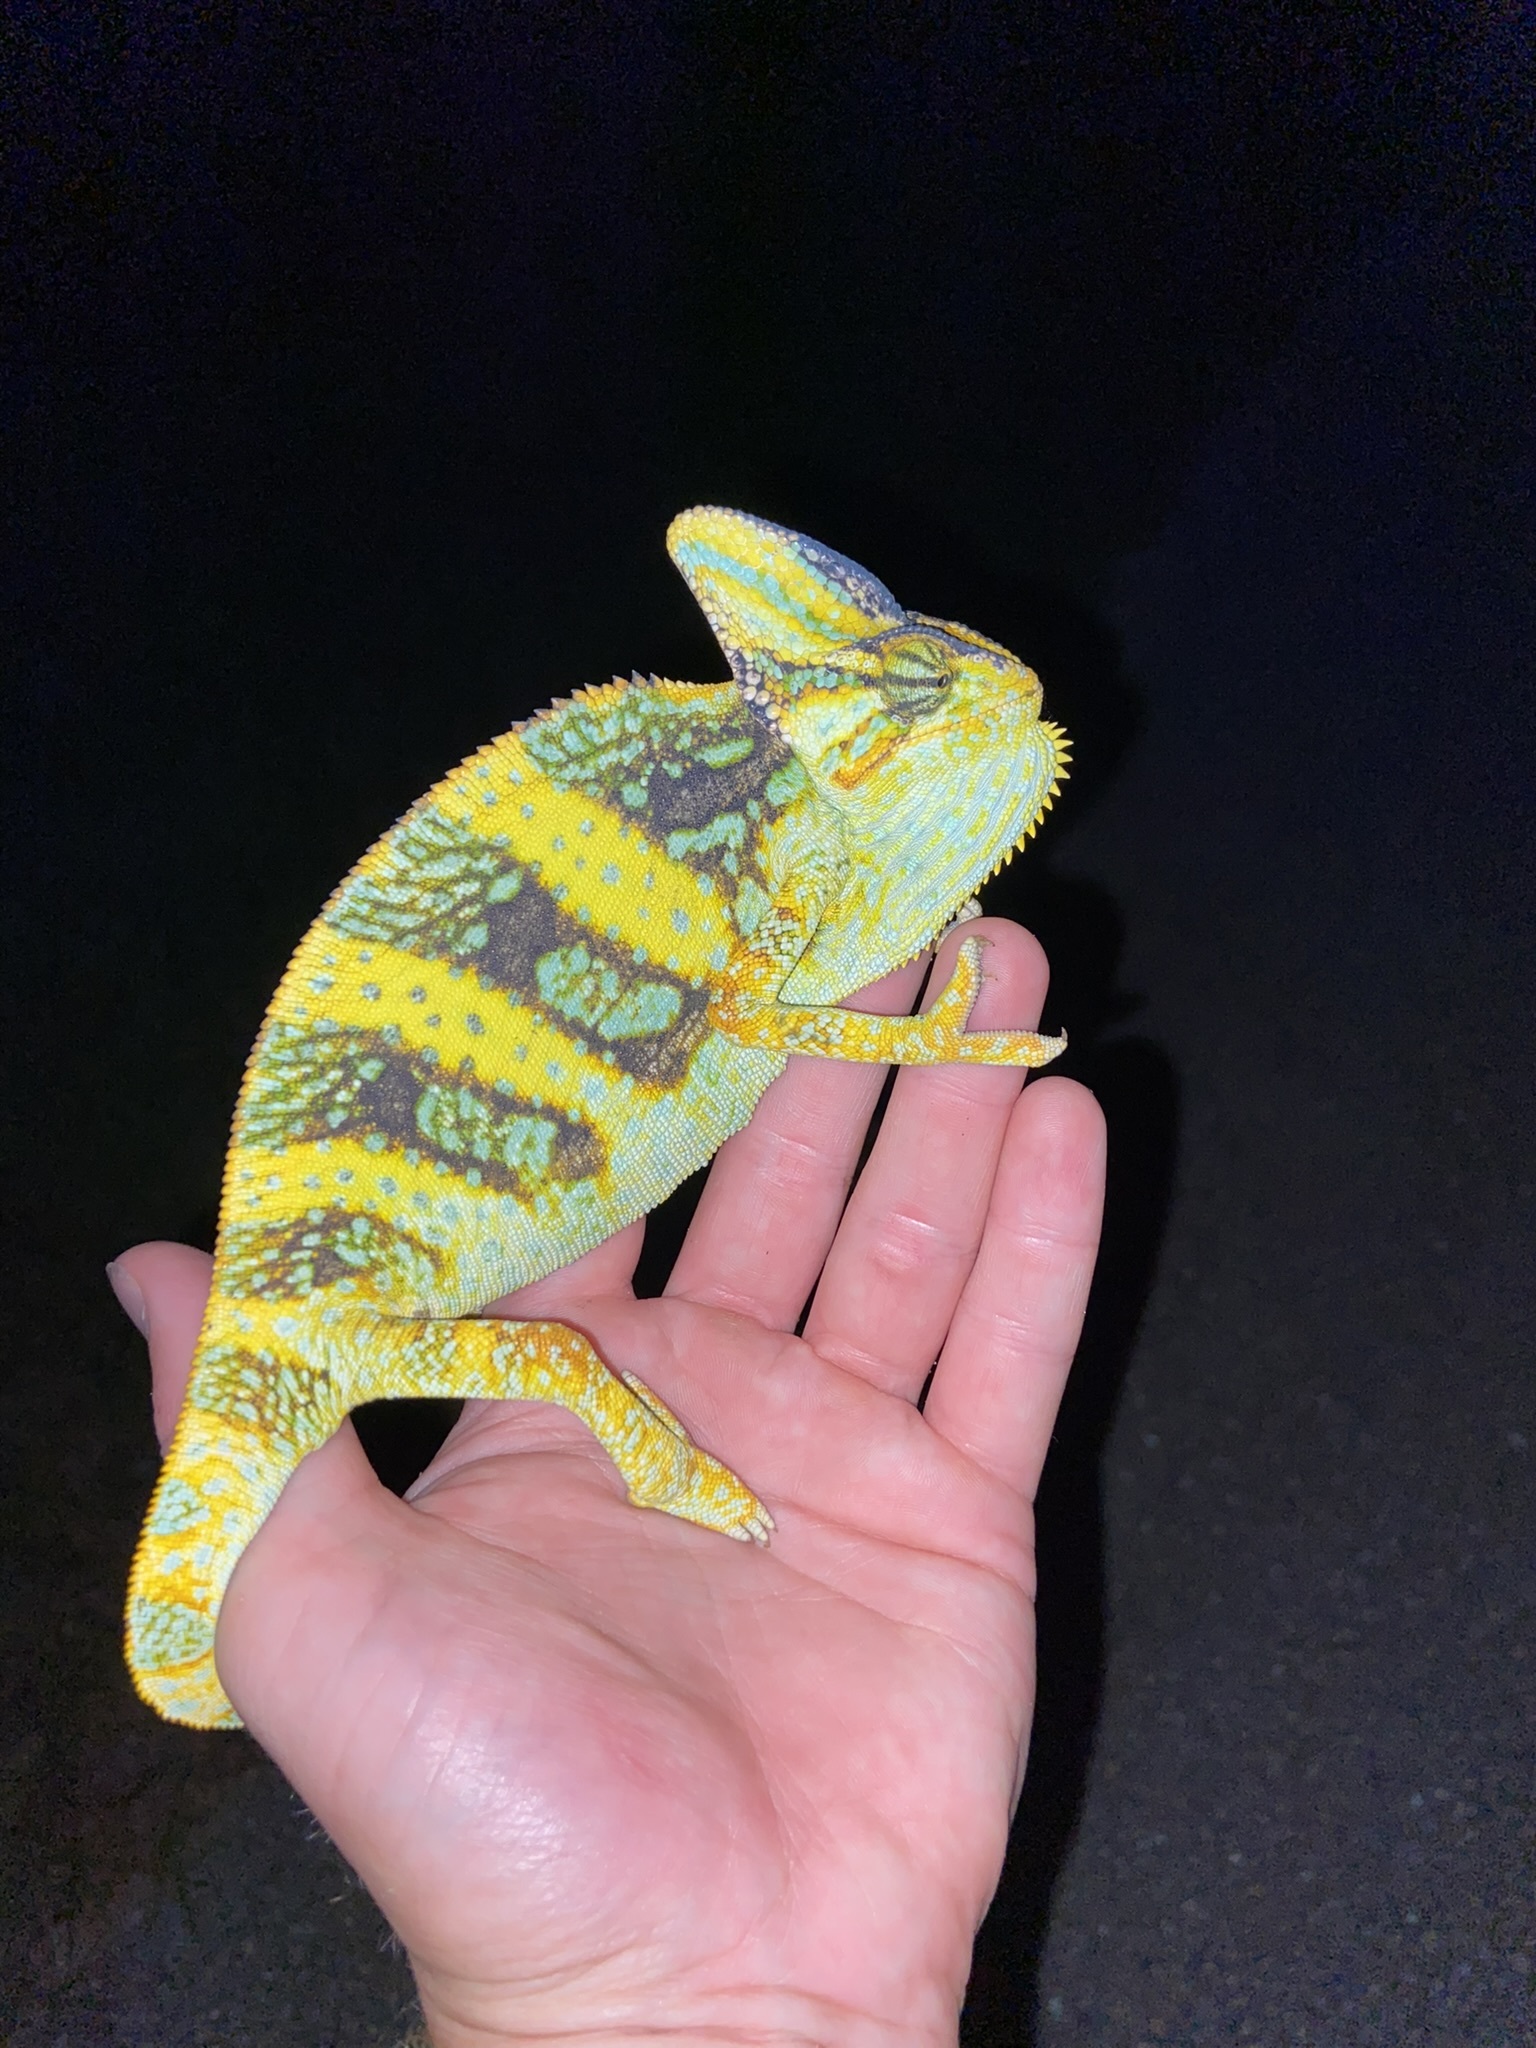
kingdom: Animalia
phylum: Chordata
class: Squamata
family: Chamaeleonidae
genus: Chamaeleo
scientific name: Chamaeleo calyptratus
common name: Veiled chameleon
